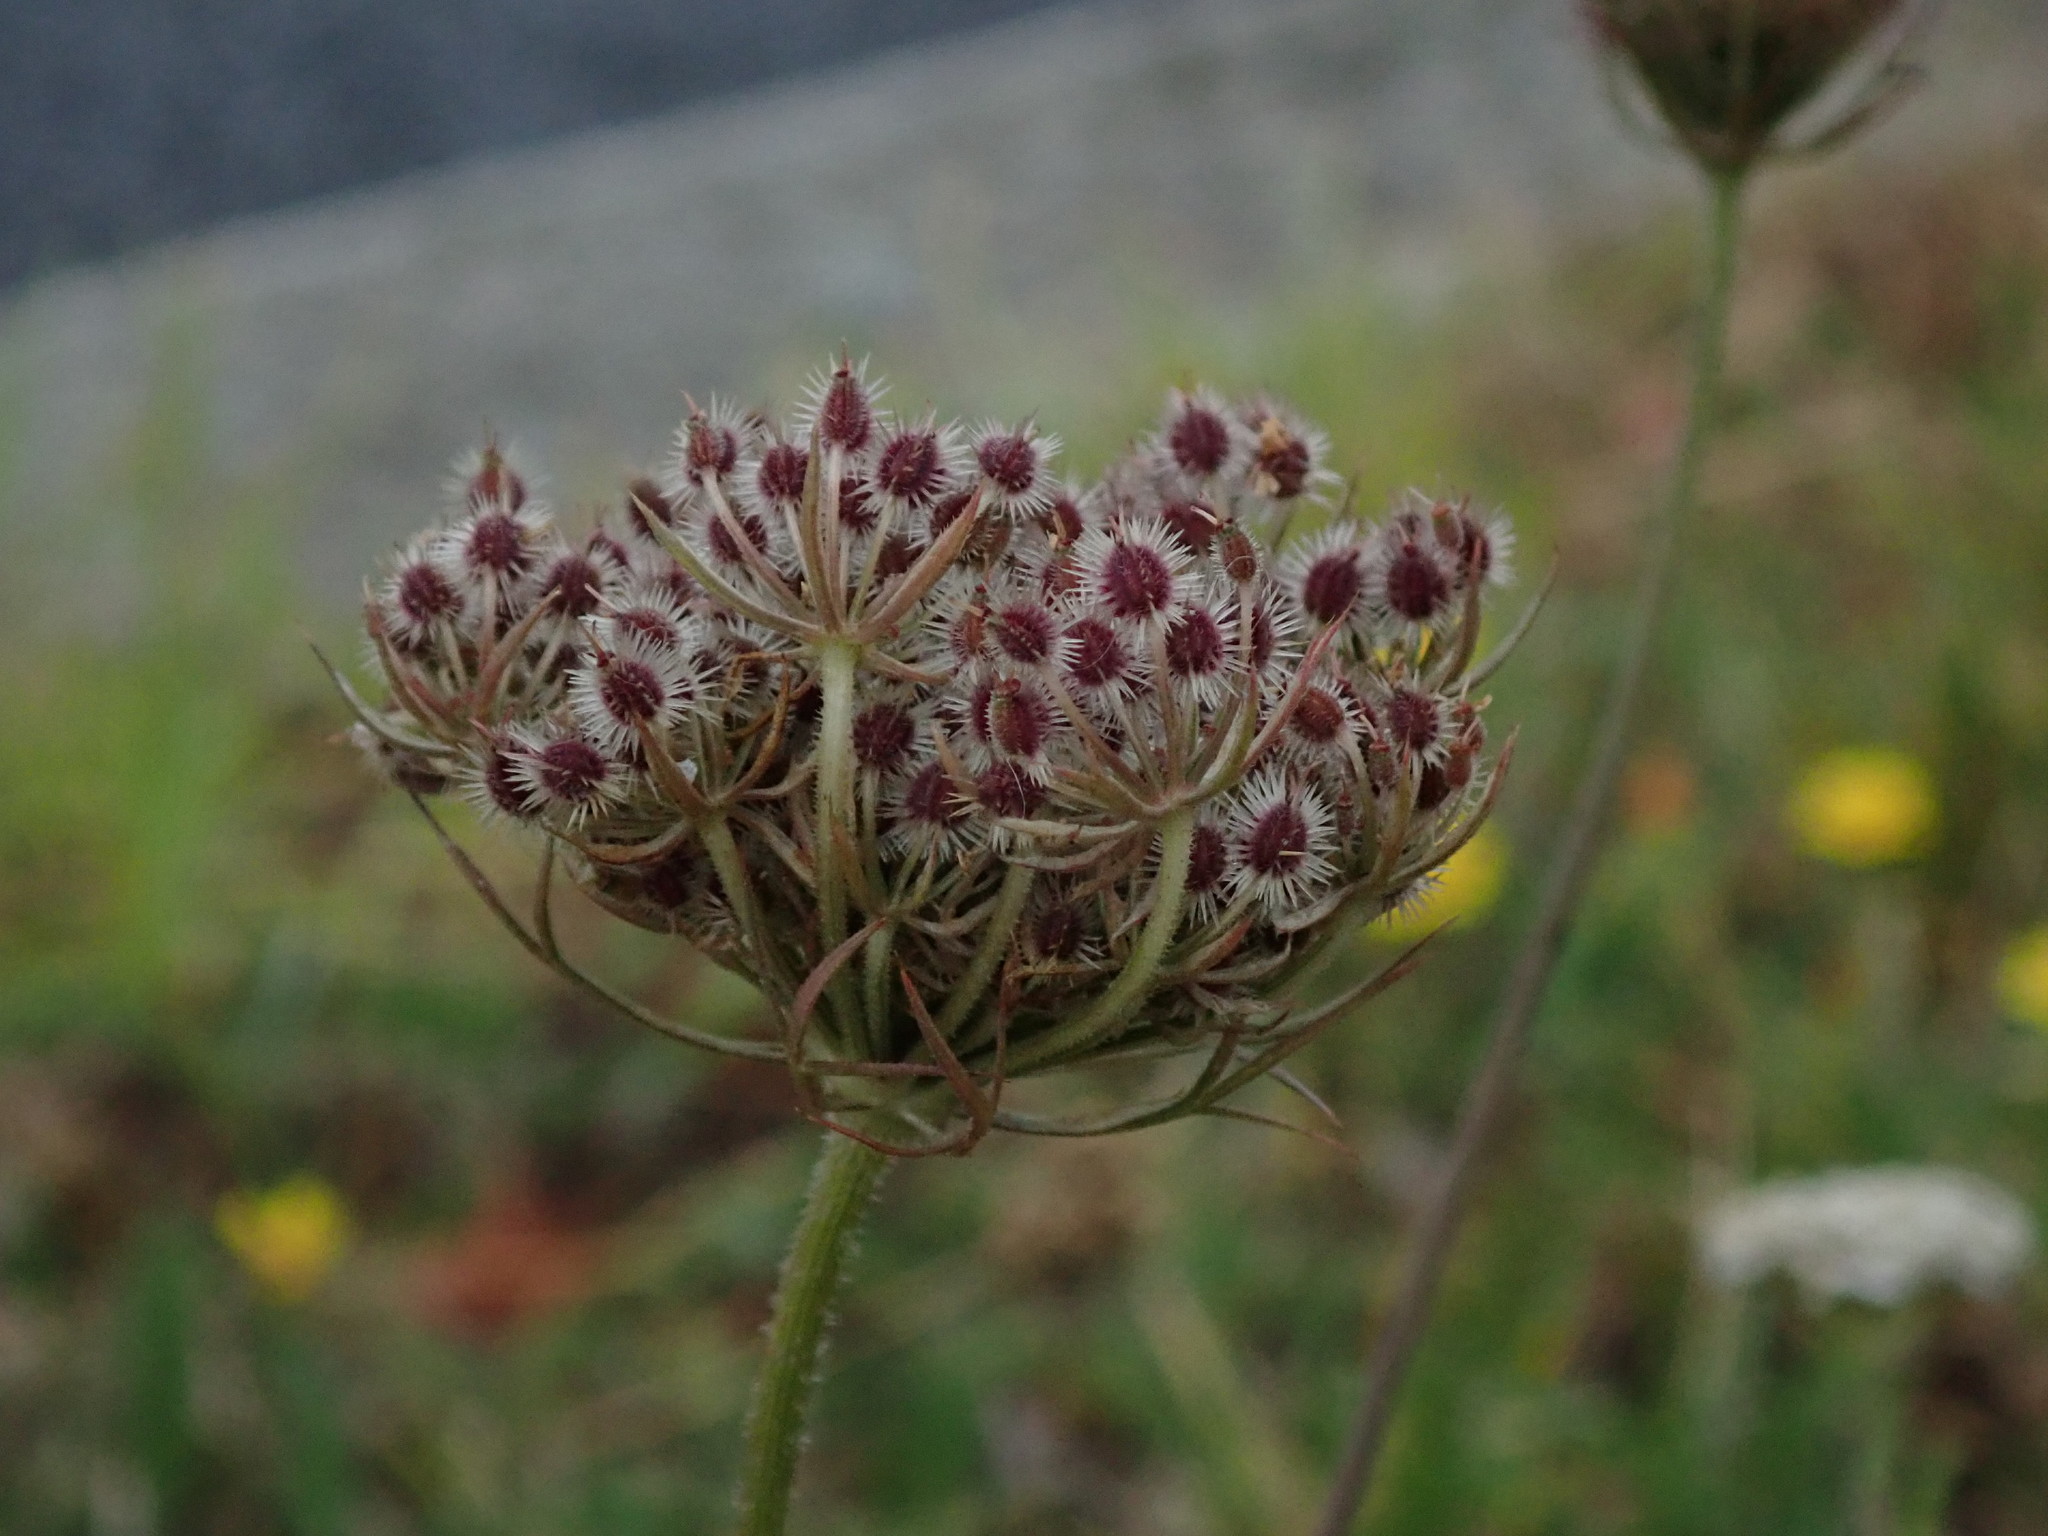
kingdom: Plantae
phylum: Tracheophyta
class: Magnoliopsida
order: Apiales
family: Apiaceae
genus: Daucus
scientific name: Daucus carota
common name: Wild carrot
